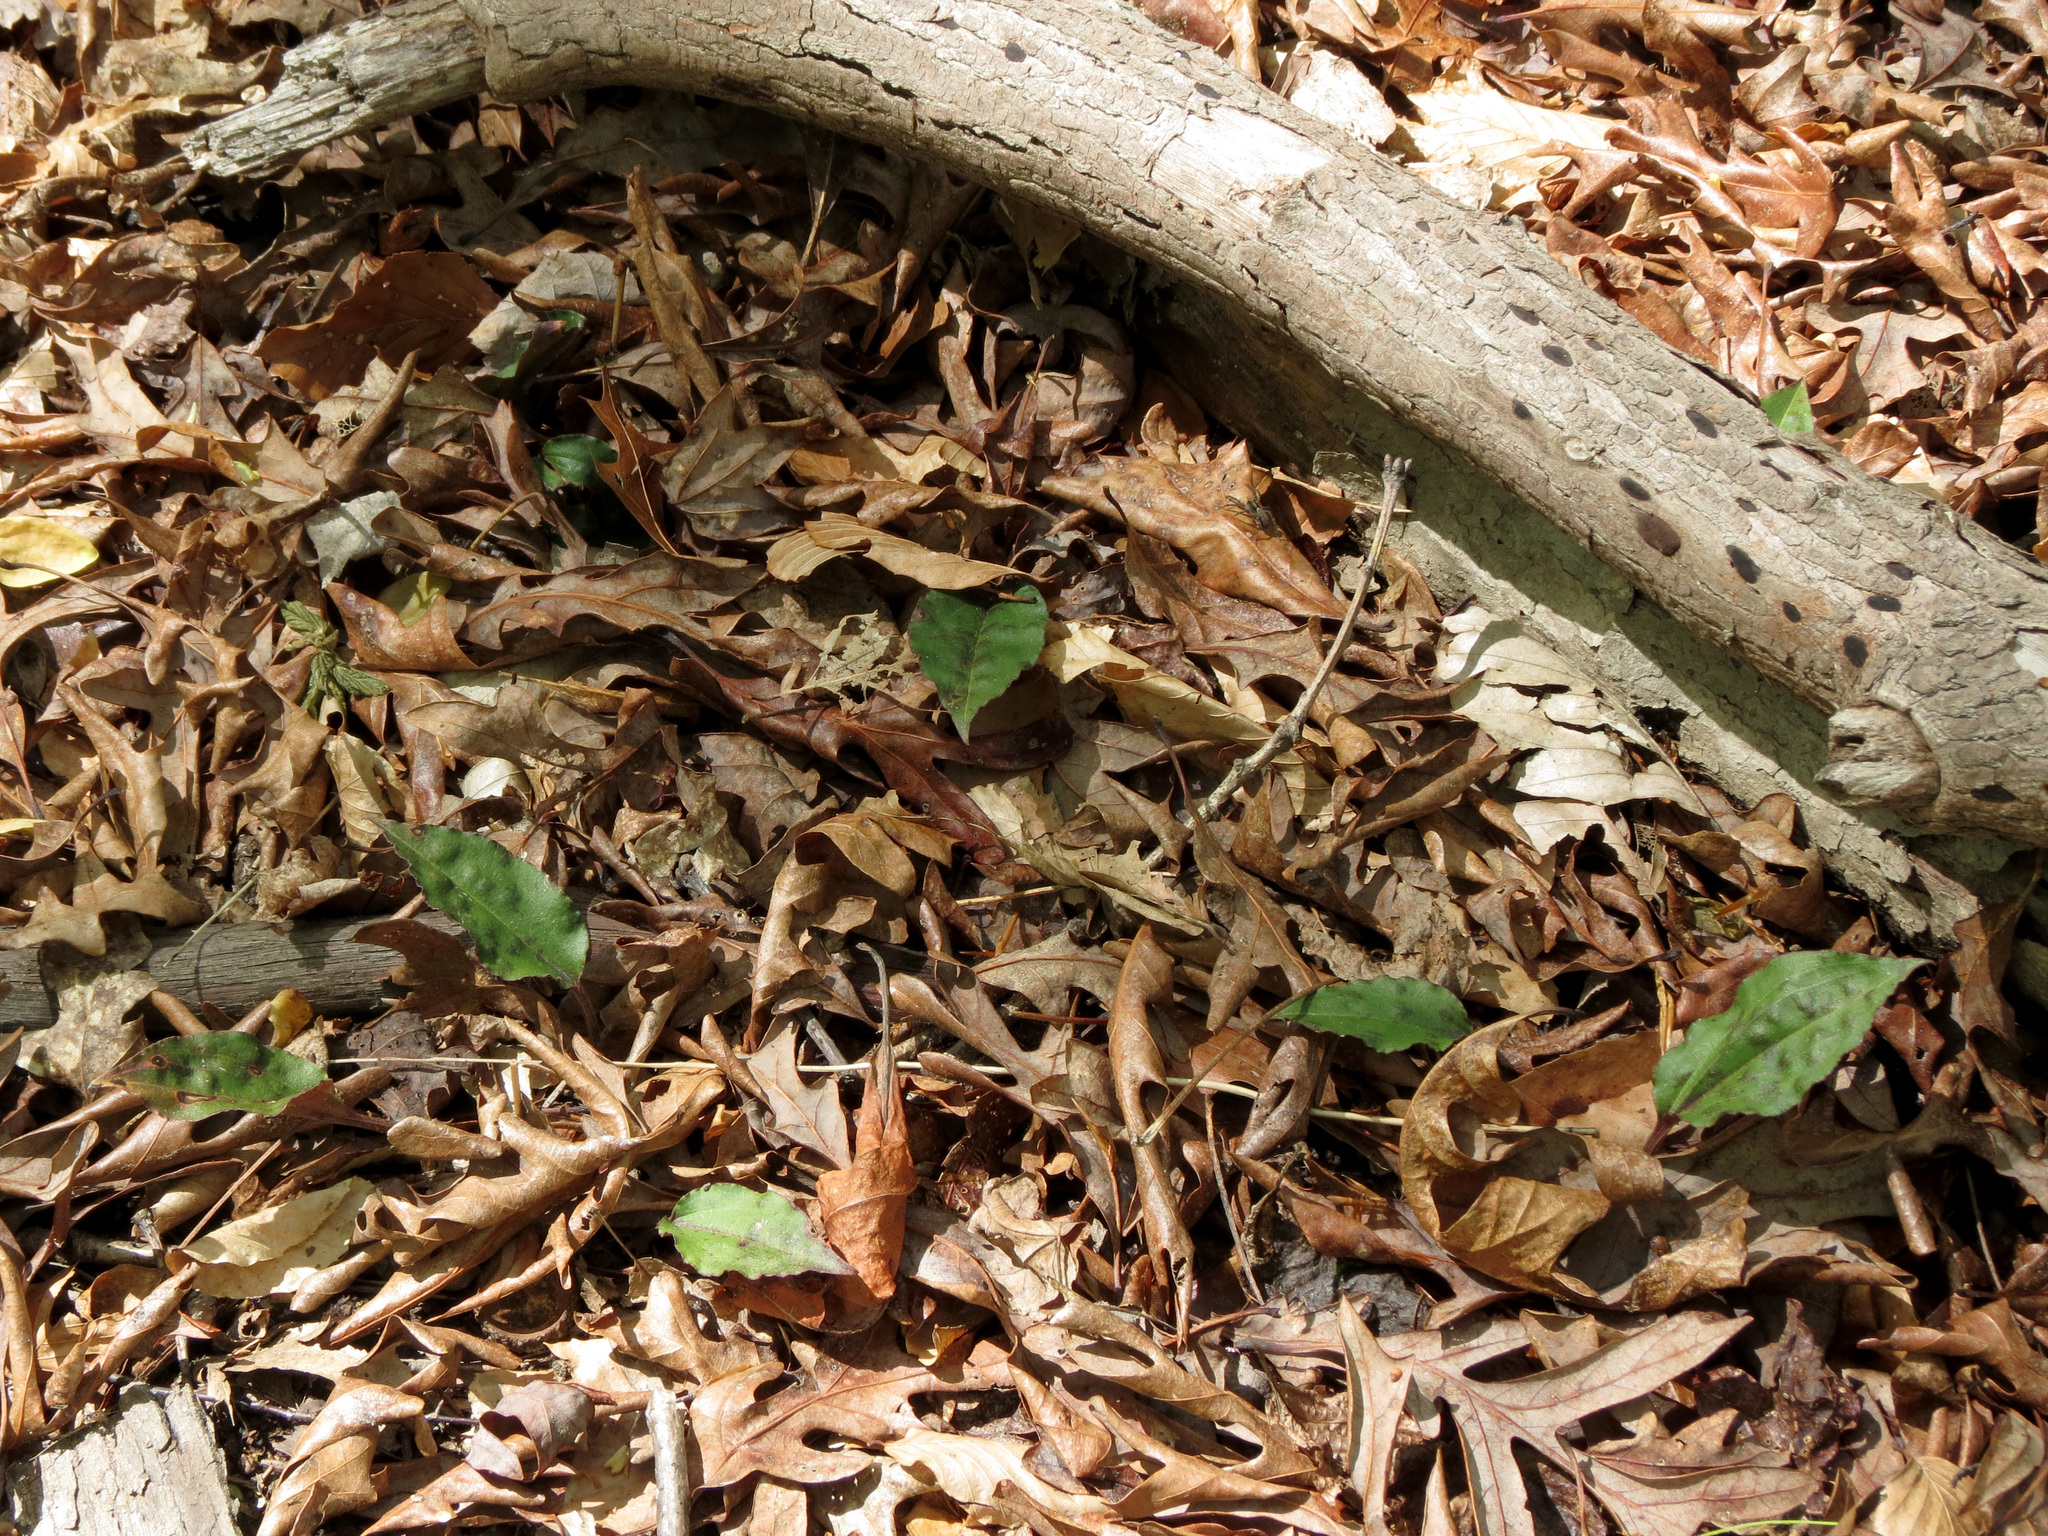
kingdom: Plantae
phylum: Tracheophyta
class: Liliopsida
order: Asparagales
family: Orchidaceae
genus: Tipularia
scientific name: Tipularia discolor
